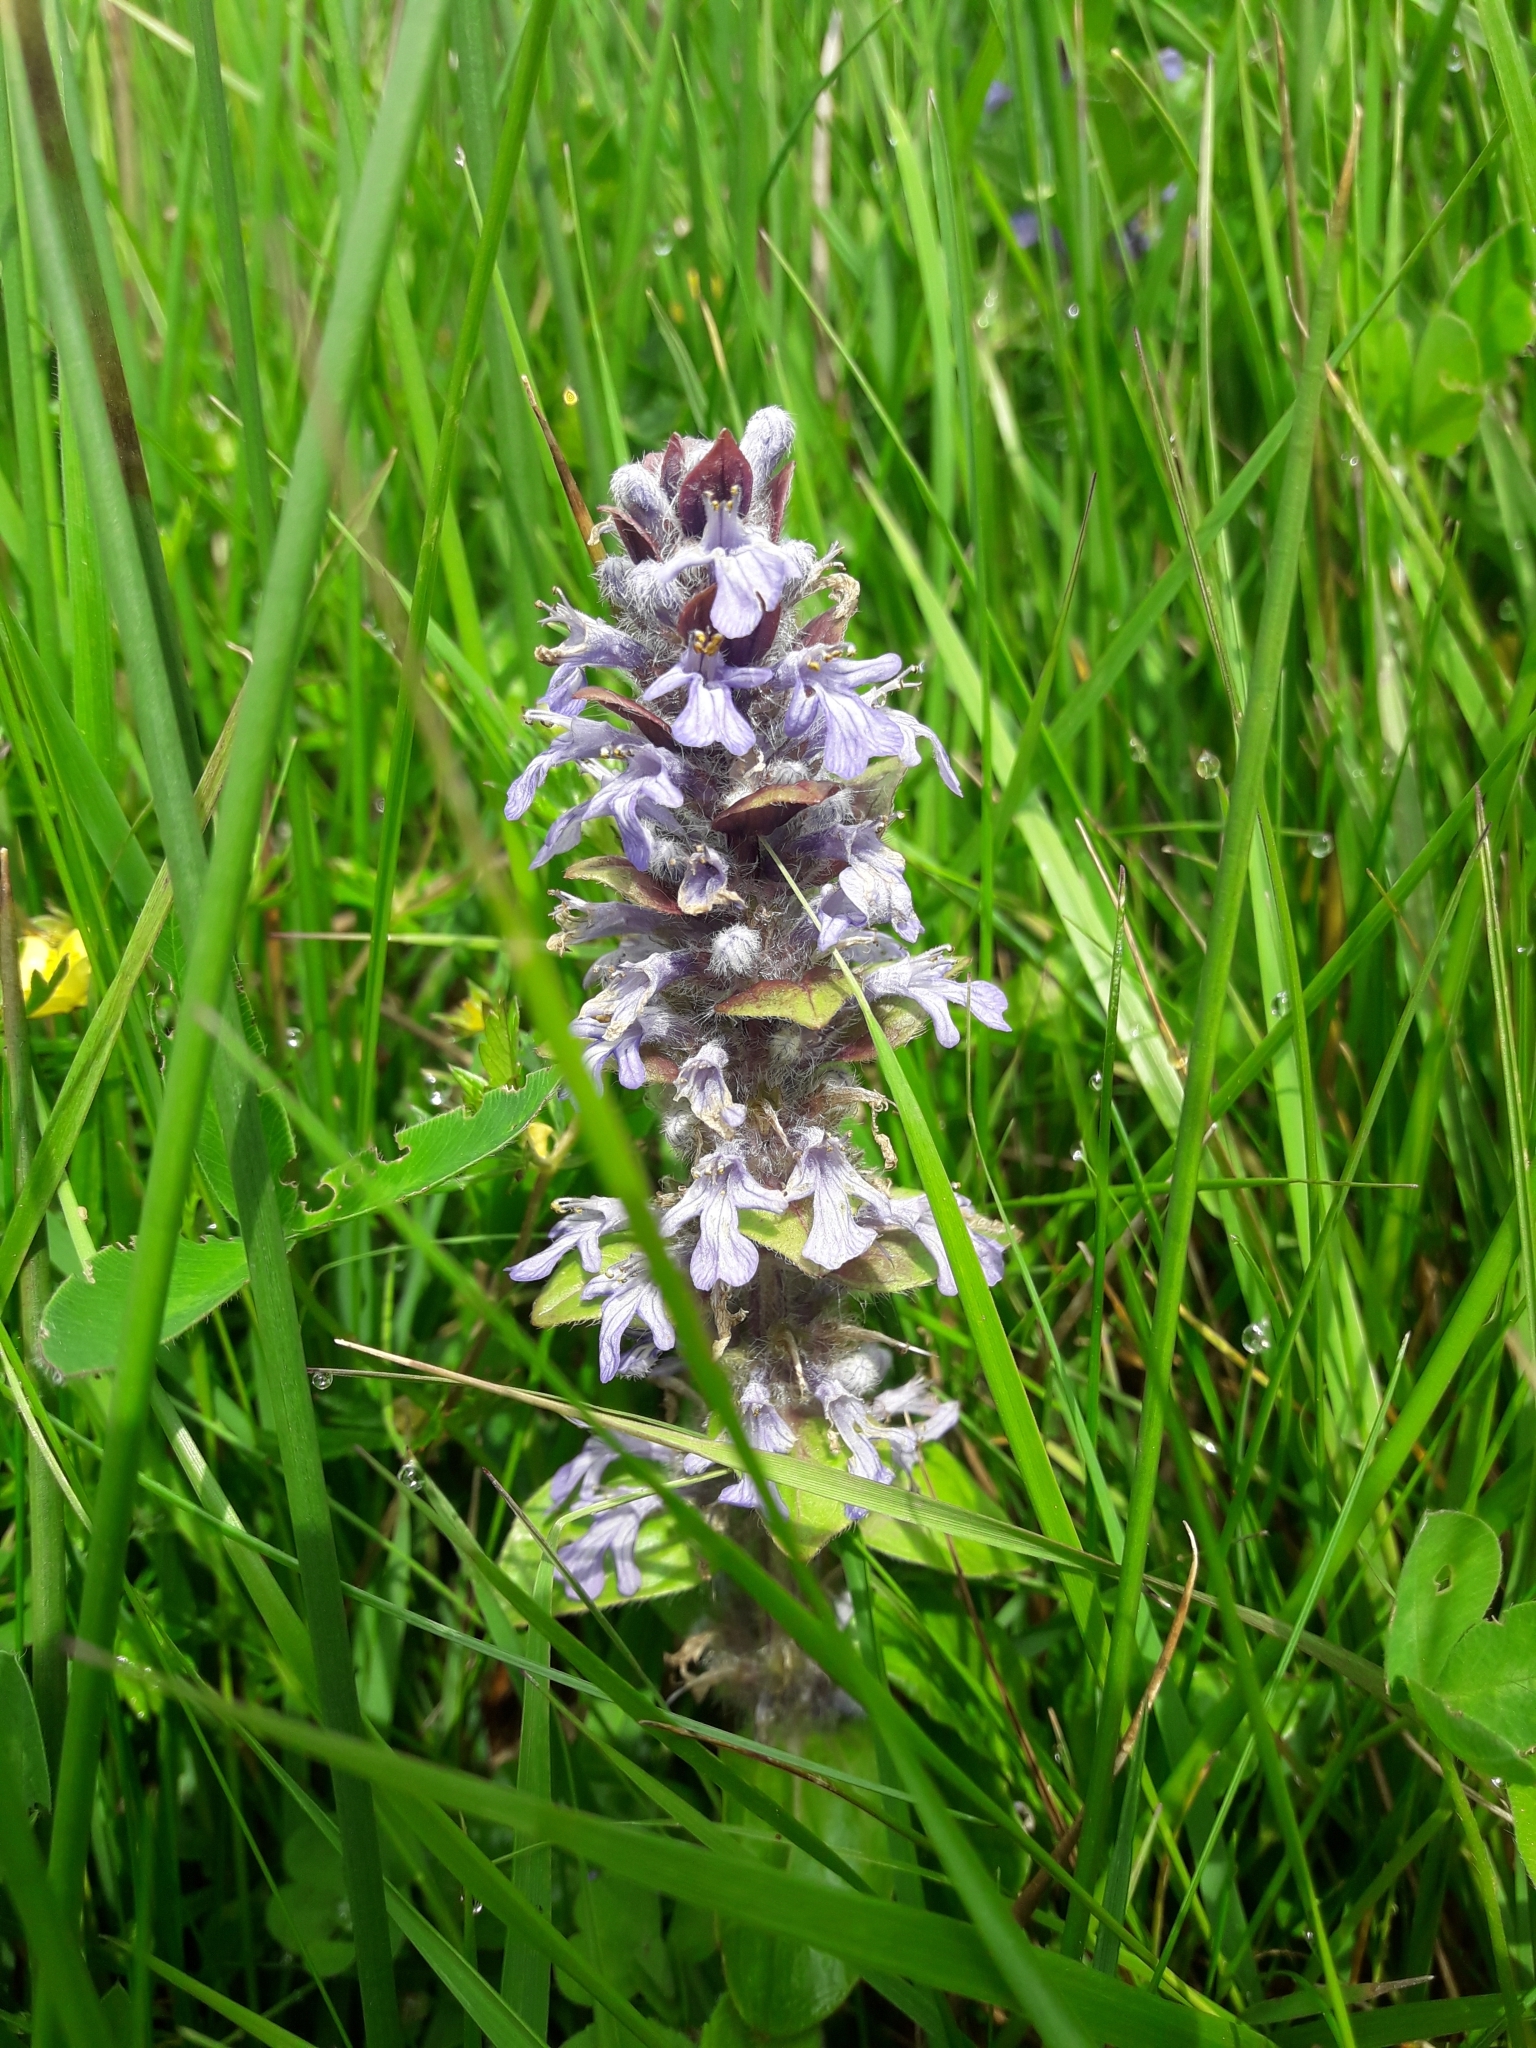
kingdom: Plantae
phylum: Tracheophyta
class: Magnoliopsida
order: Lamiales
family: Lamiaceae
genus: Ajuga
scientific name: Ajuga reptans
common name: Bugle
